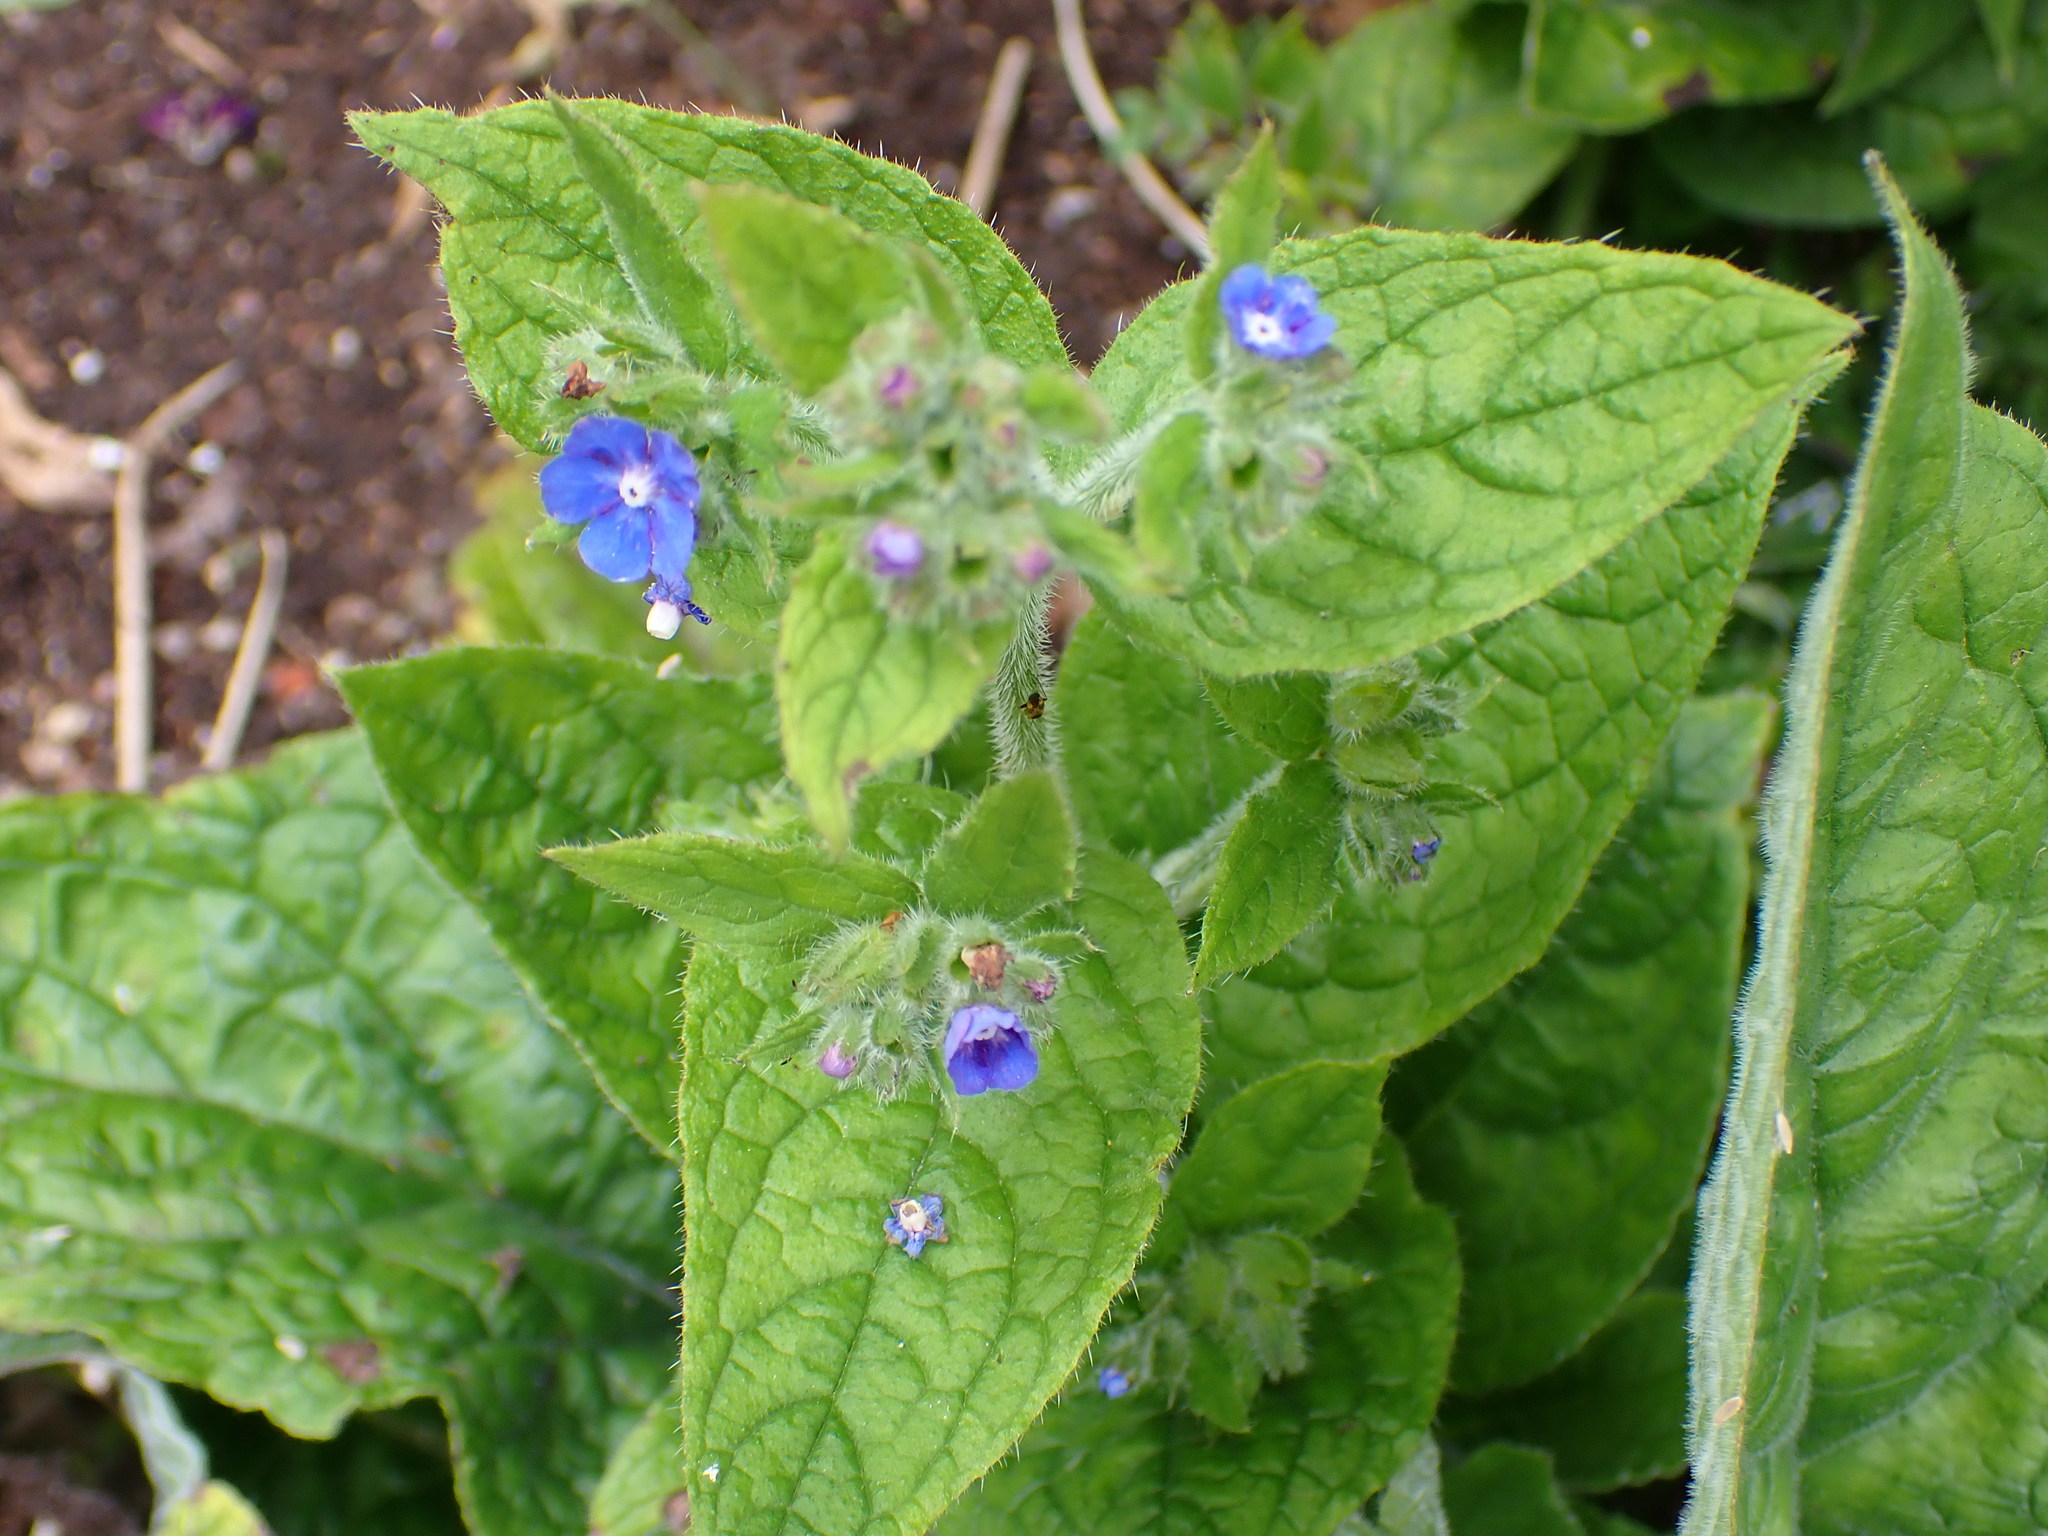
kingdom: Plantae
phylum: Tracheophyta
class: Magnoliopsida
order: Boraginales
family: Boraginaceae
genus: Pentaglottis
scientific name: Pentaglottis sempervirens
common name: Green alkanet
